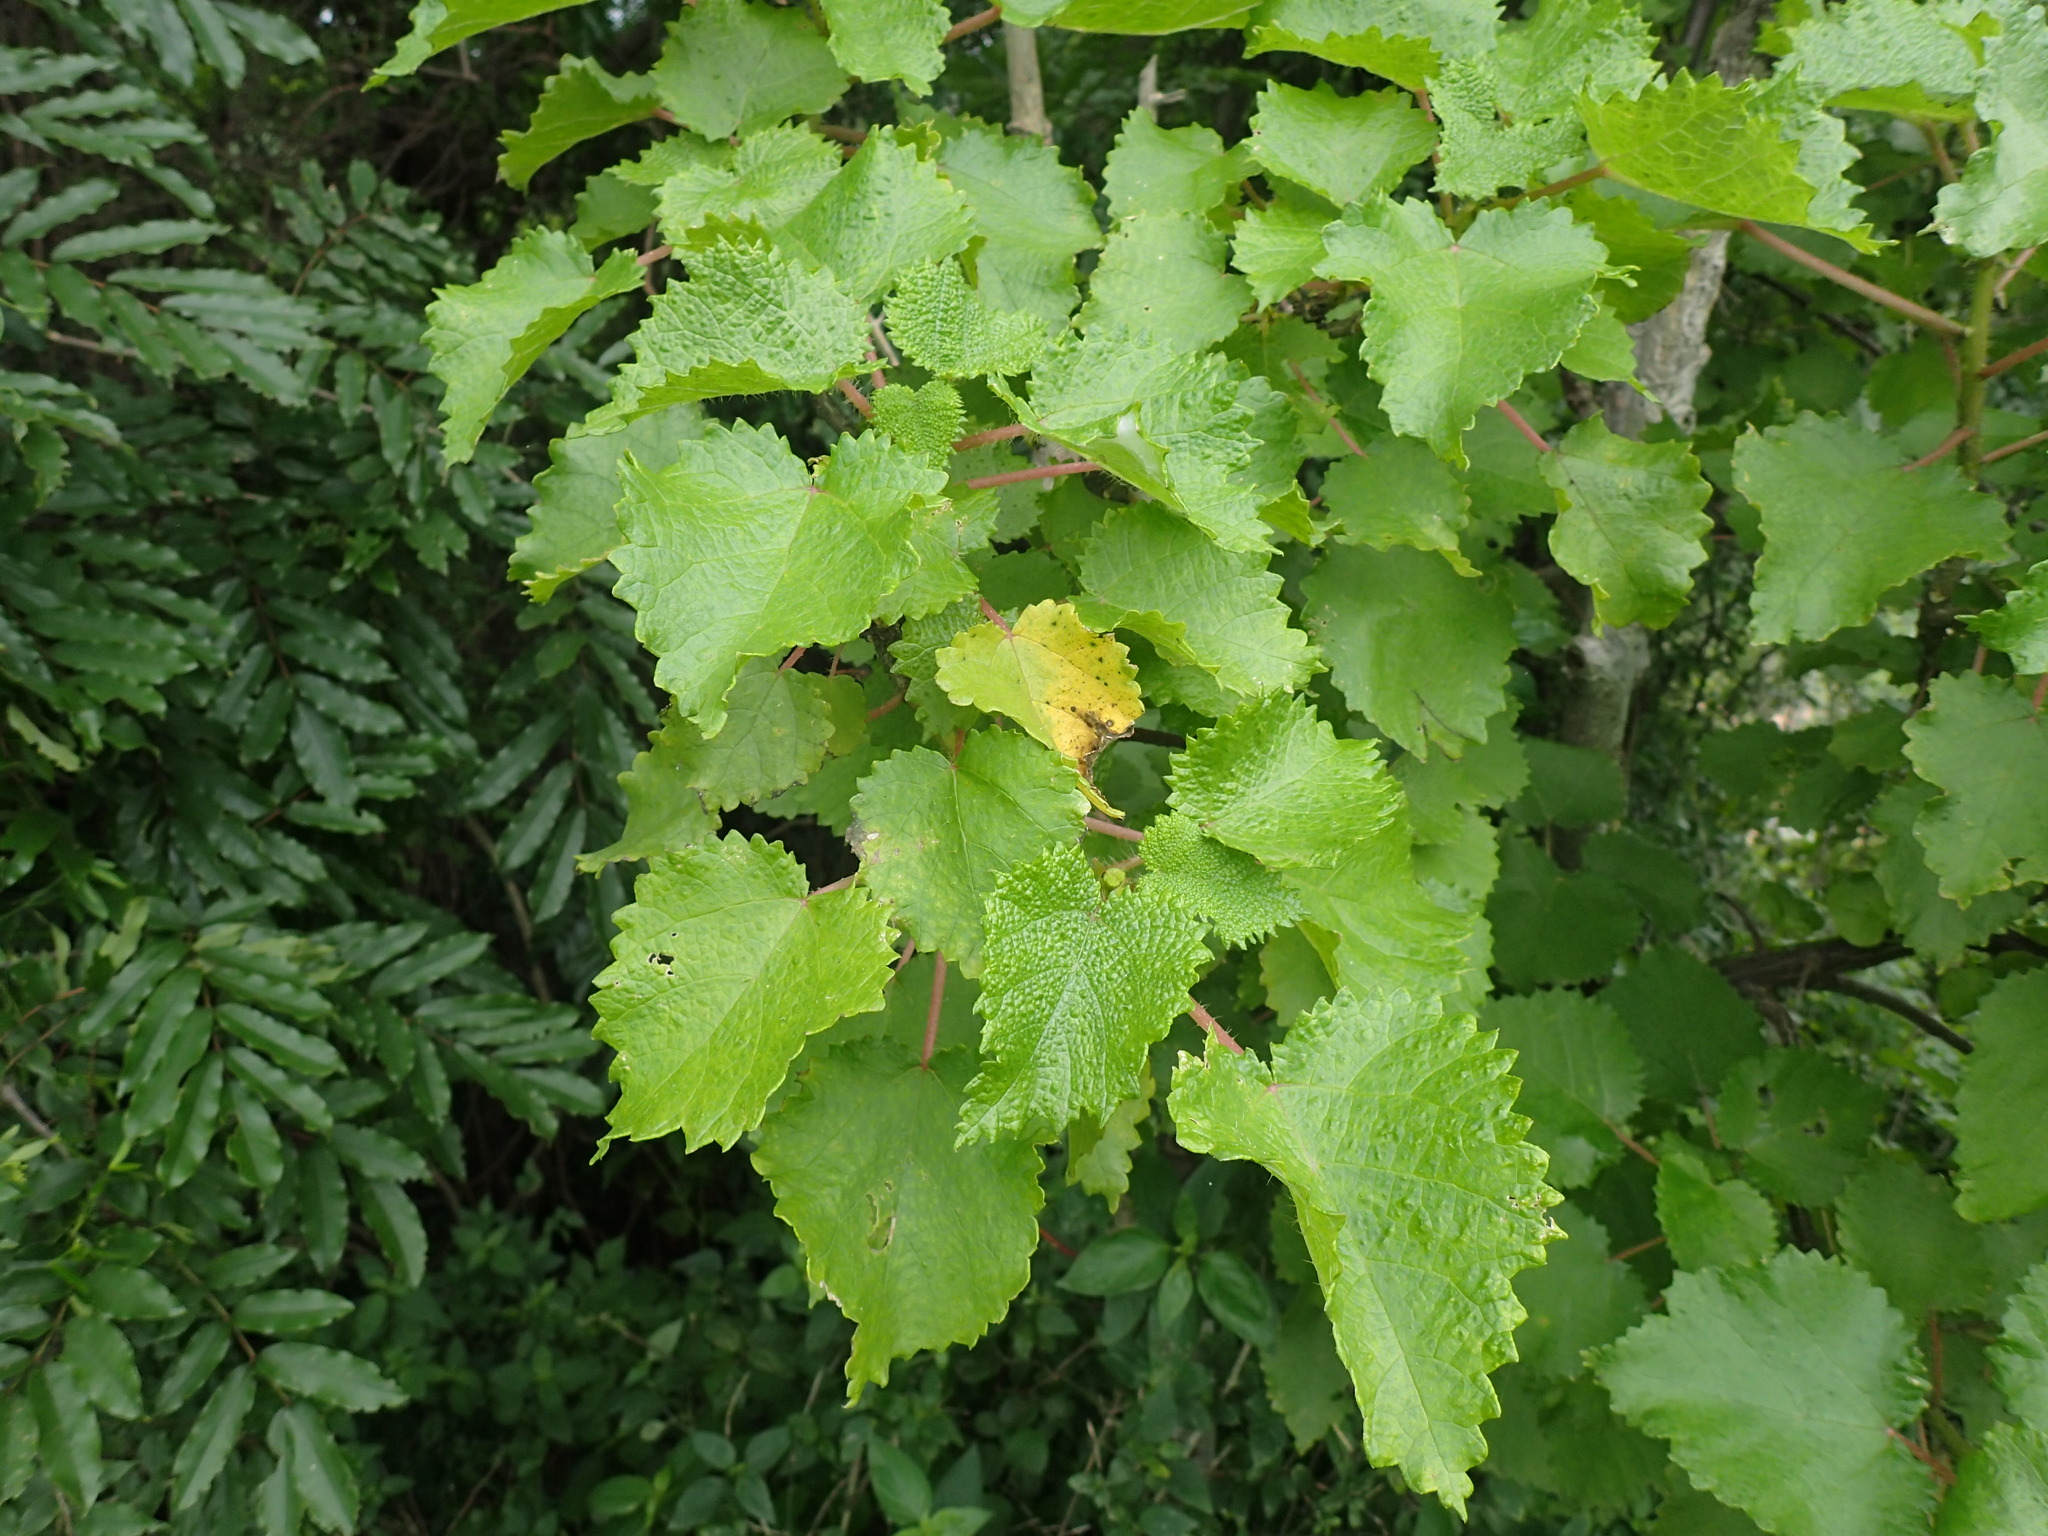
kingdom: Plantae
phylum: Tracheophyta
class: Magnoliopsida
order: Rosales
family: Urticaceae
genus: Obetia
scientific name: Obetia tenax
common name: Rock tree nettle
